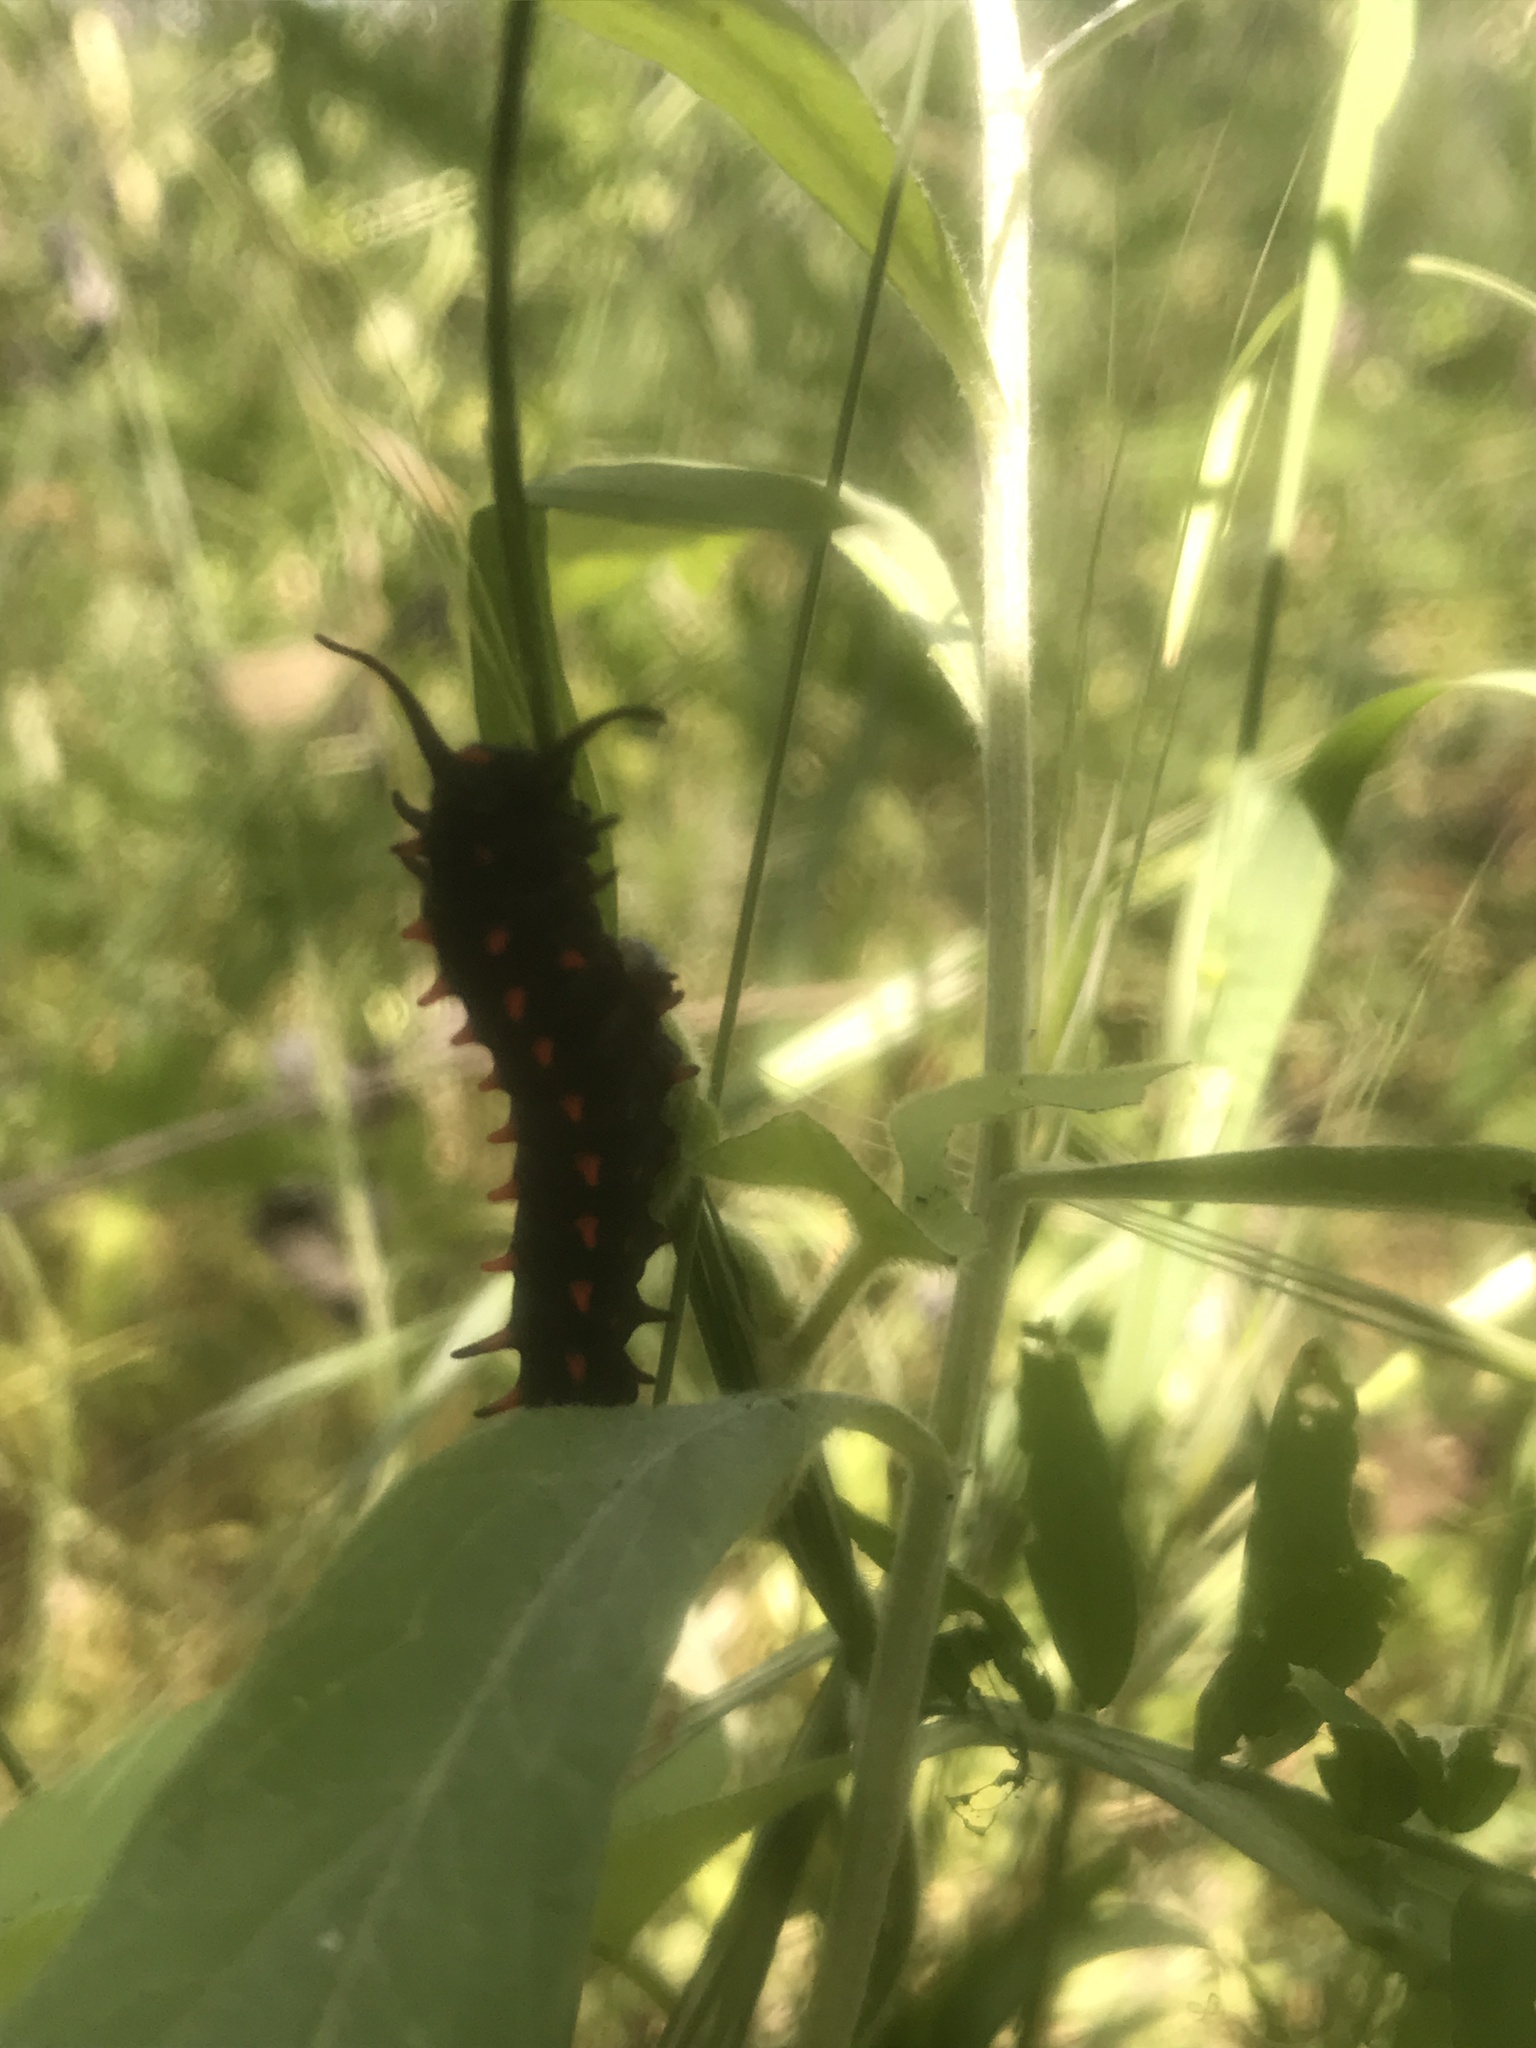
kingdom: Animalia
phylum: Arthropoda
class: Insecta
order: Lepidoptera
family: Papilionidae
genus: Battus
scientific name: Battus philenor
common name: Pipevine swallowtail
